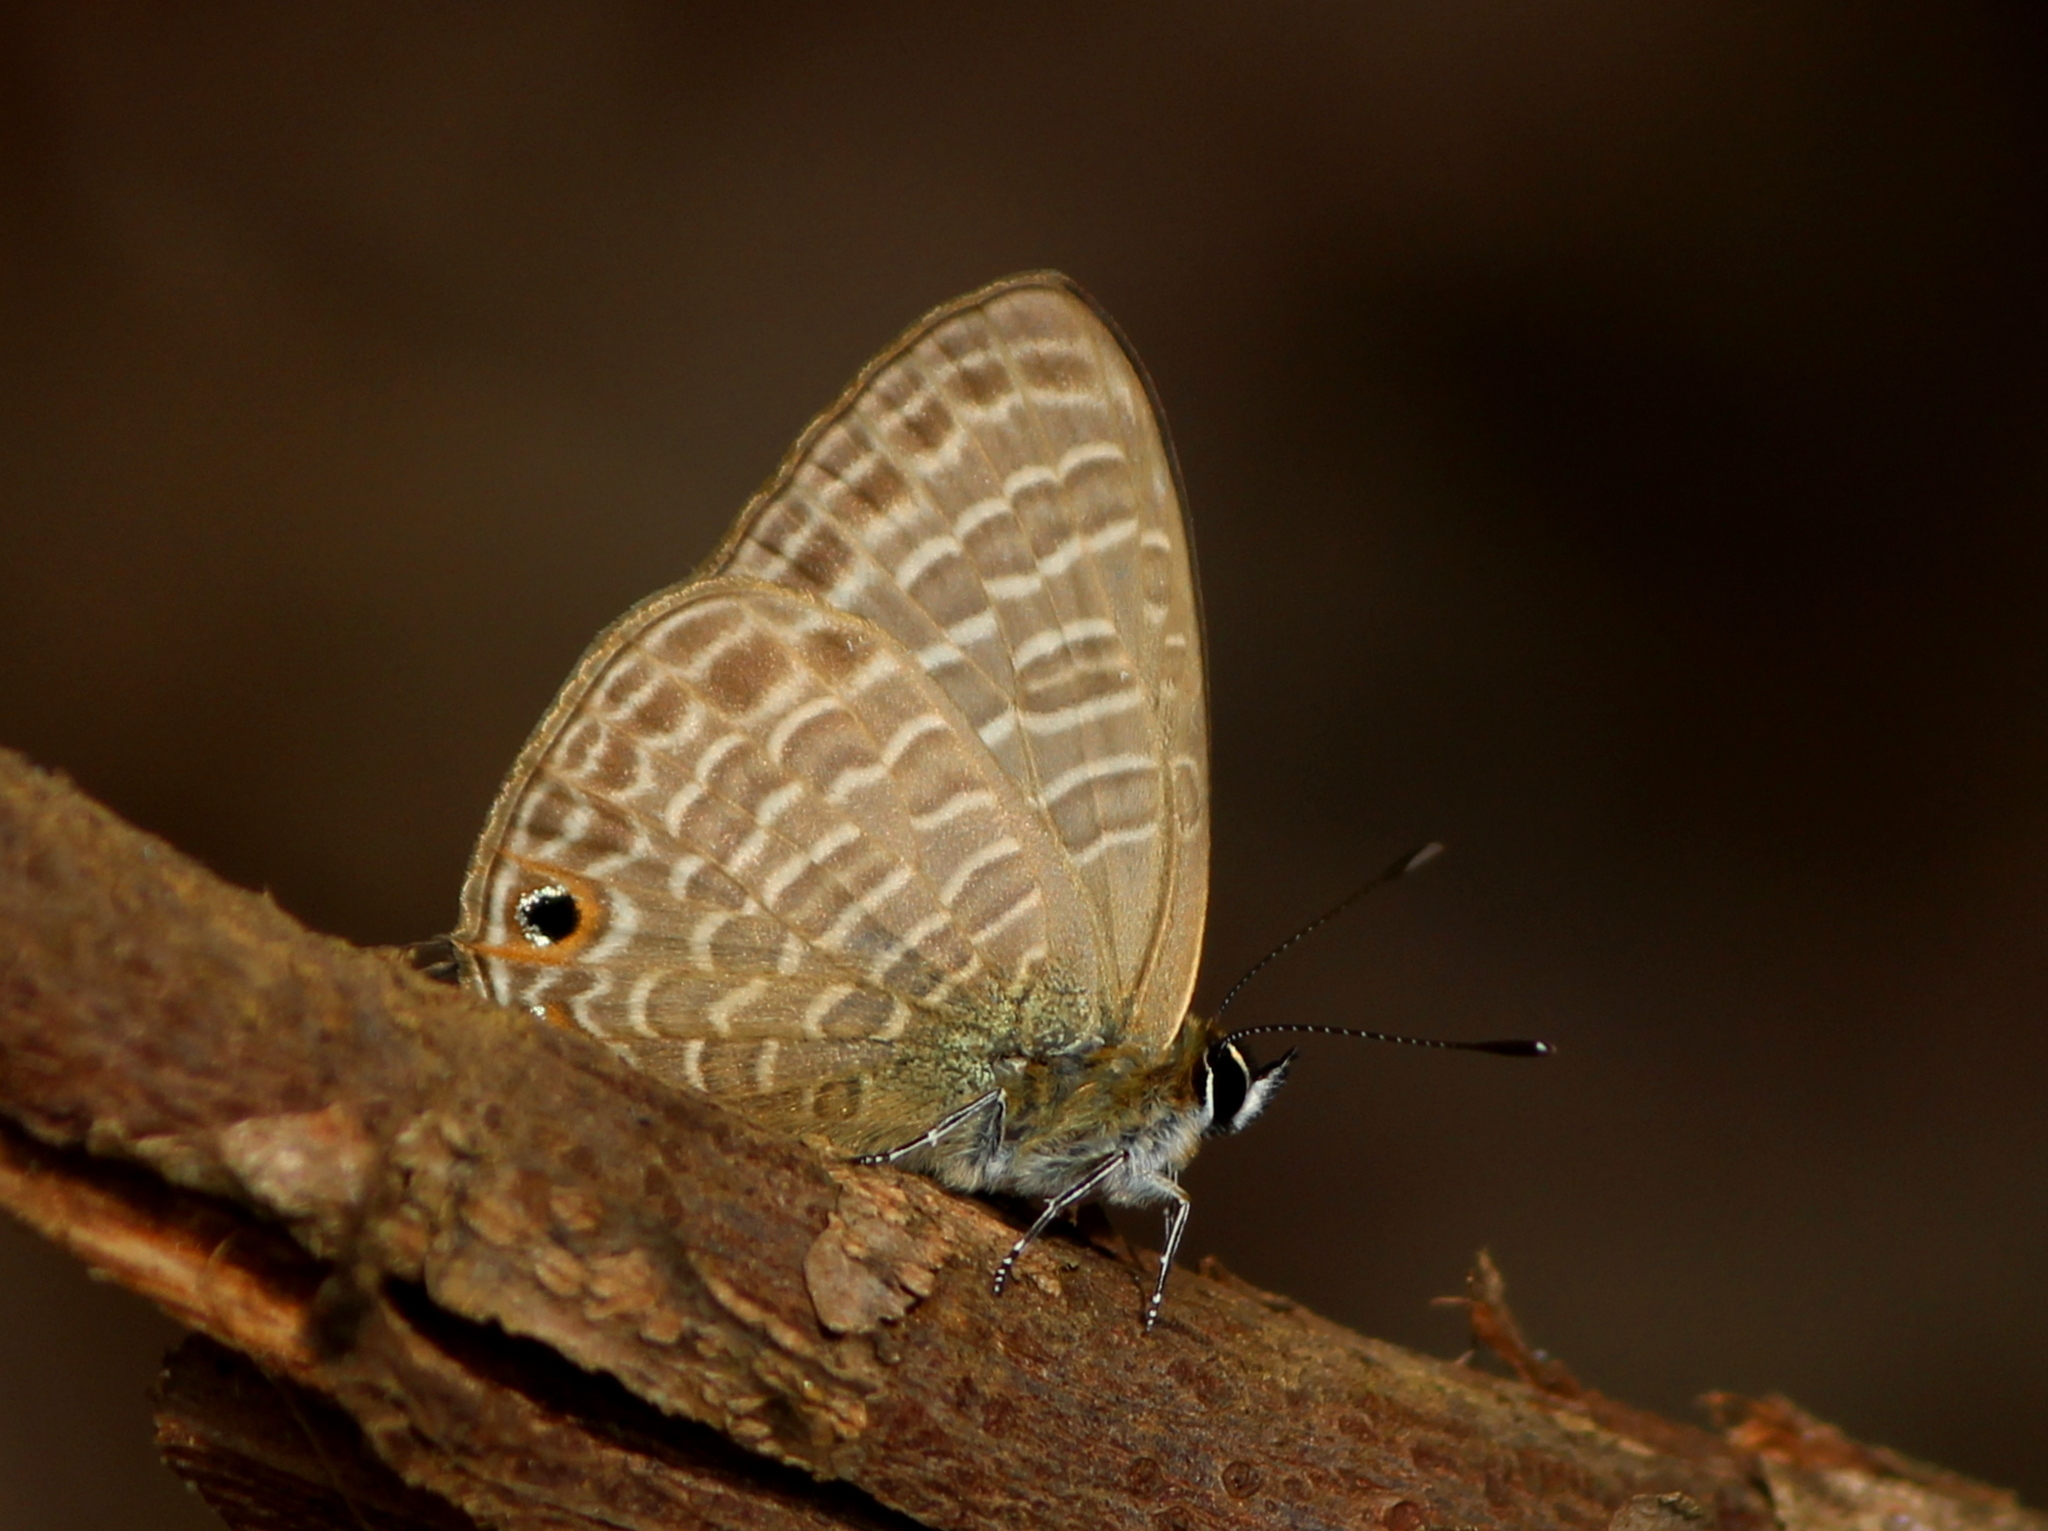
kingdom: Animalia
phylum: Arthropoda
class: Insecta
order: Lepidoptera
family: Lycaenidae
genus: Nacaduba
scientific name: Nacaduba kurava
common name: Transparent 6-line blue
